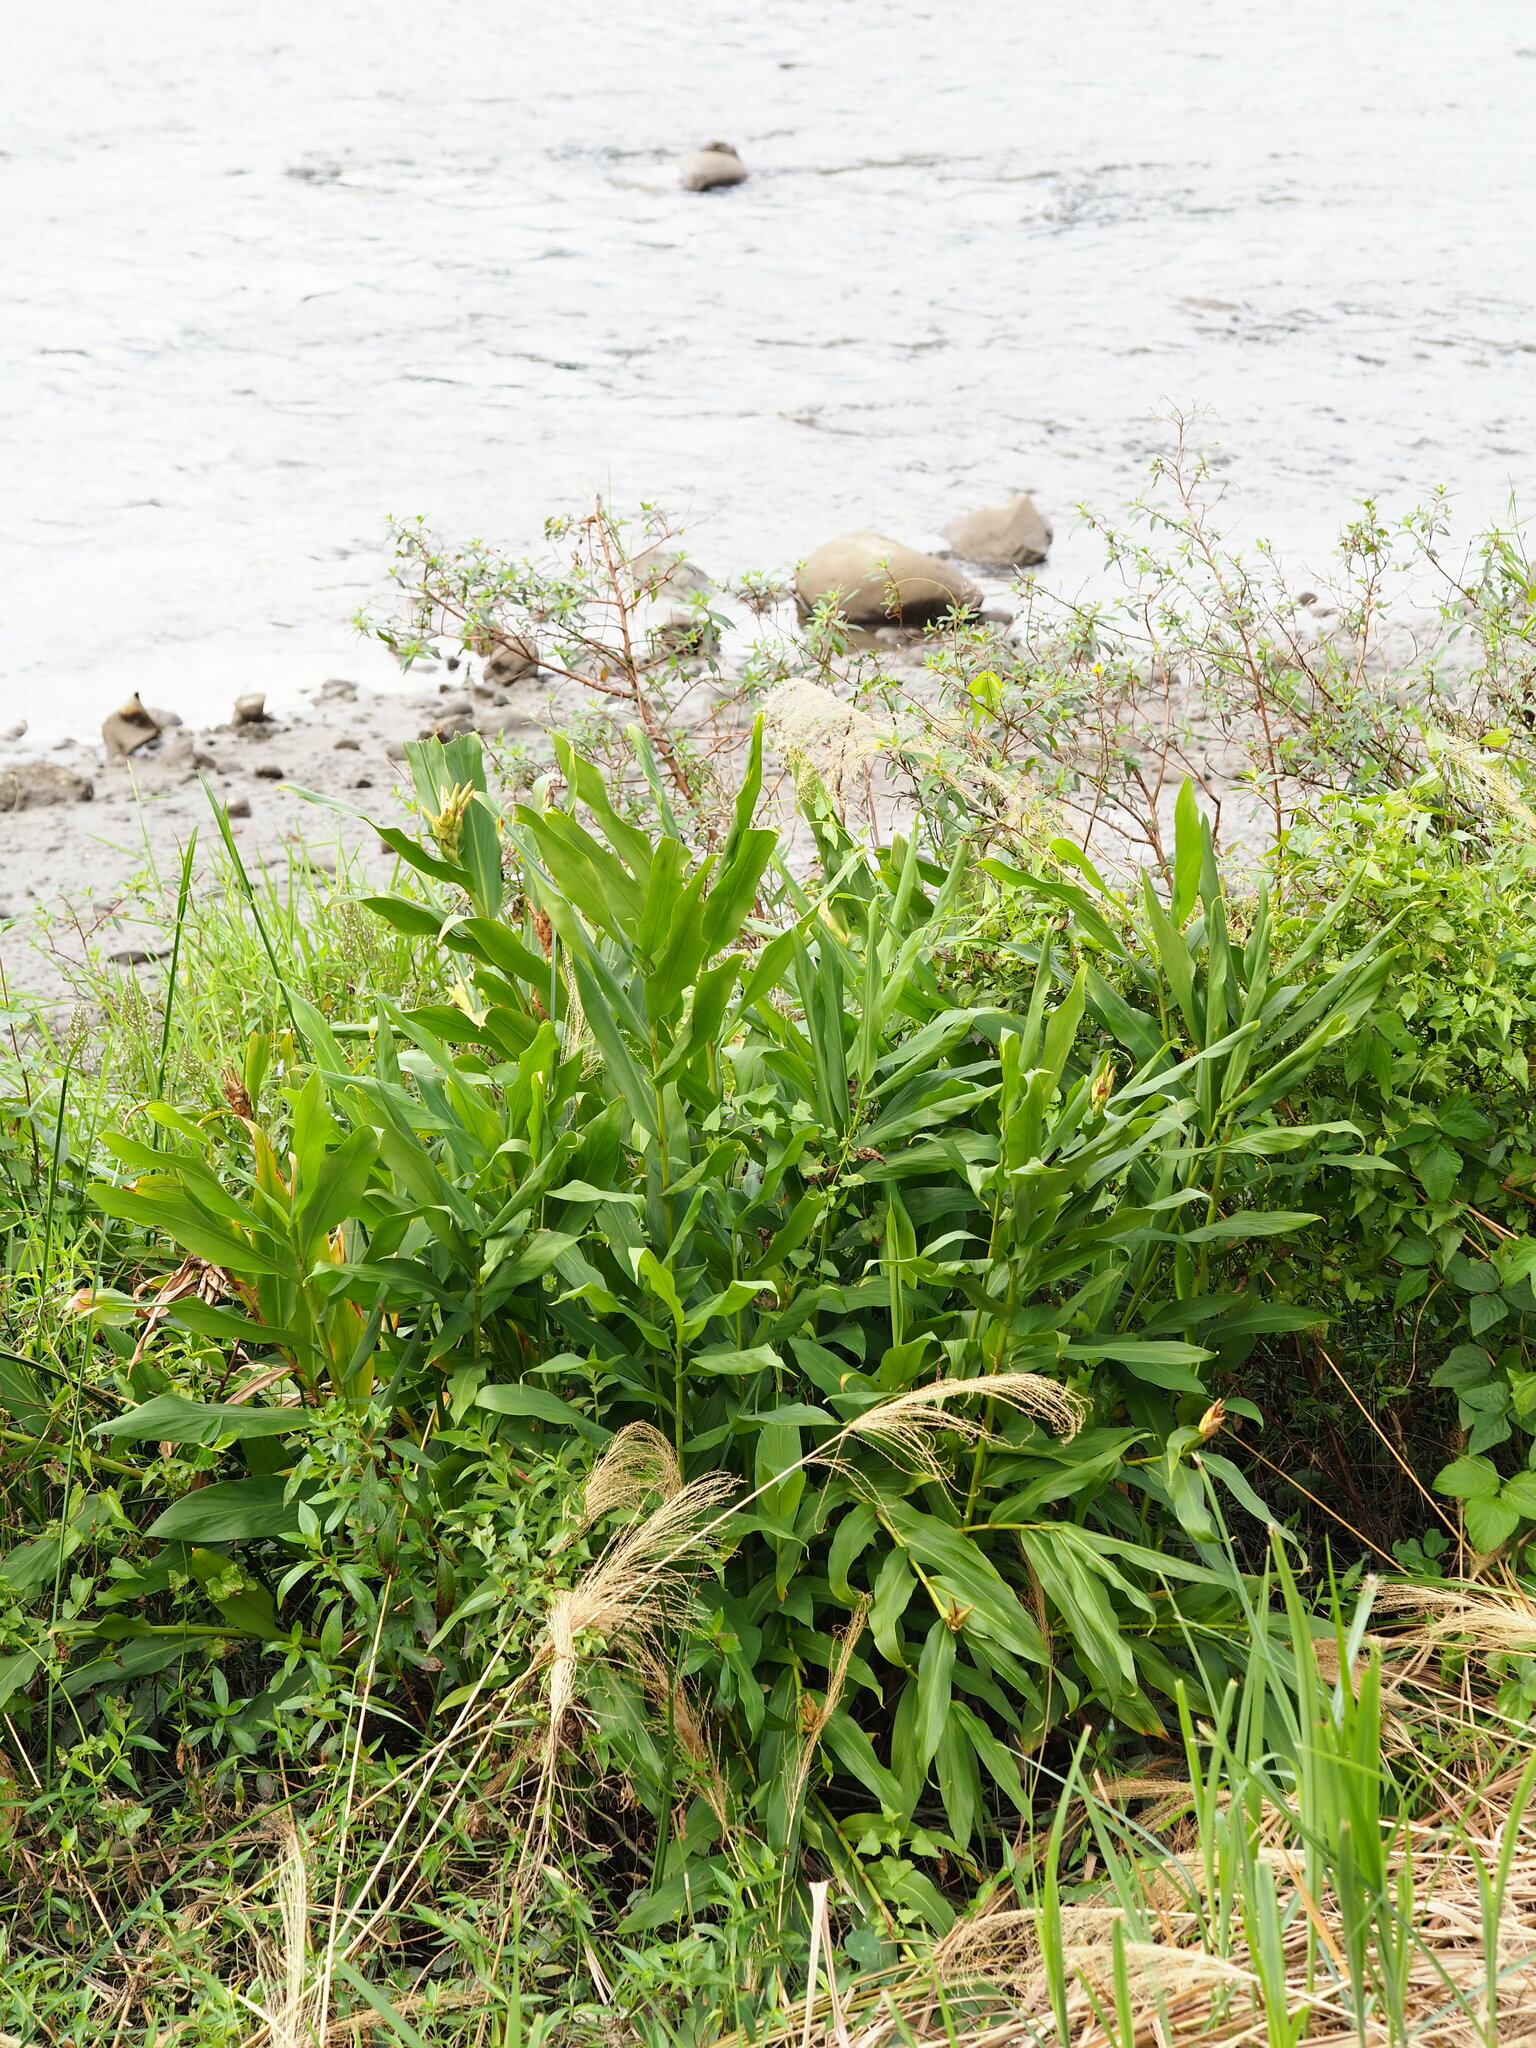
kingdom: Plantae
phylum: Tracheophyta
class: Liliopsida
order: Zingiberales
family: Zingiberaceae
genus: Hedychium
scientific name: Hedychium coronarium
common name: White garland-lily
